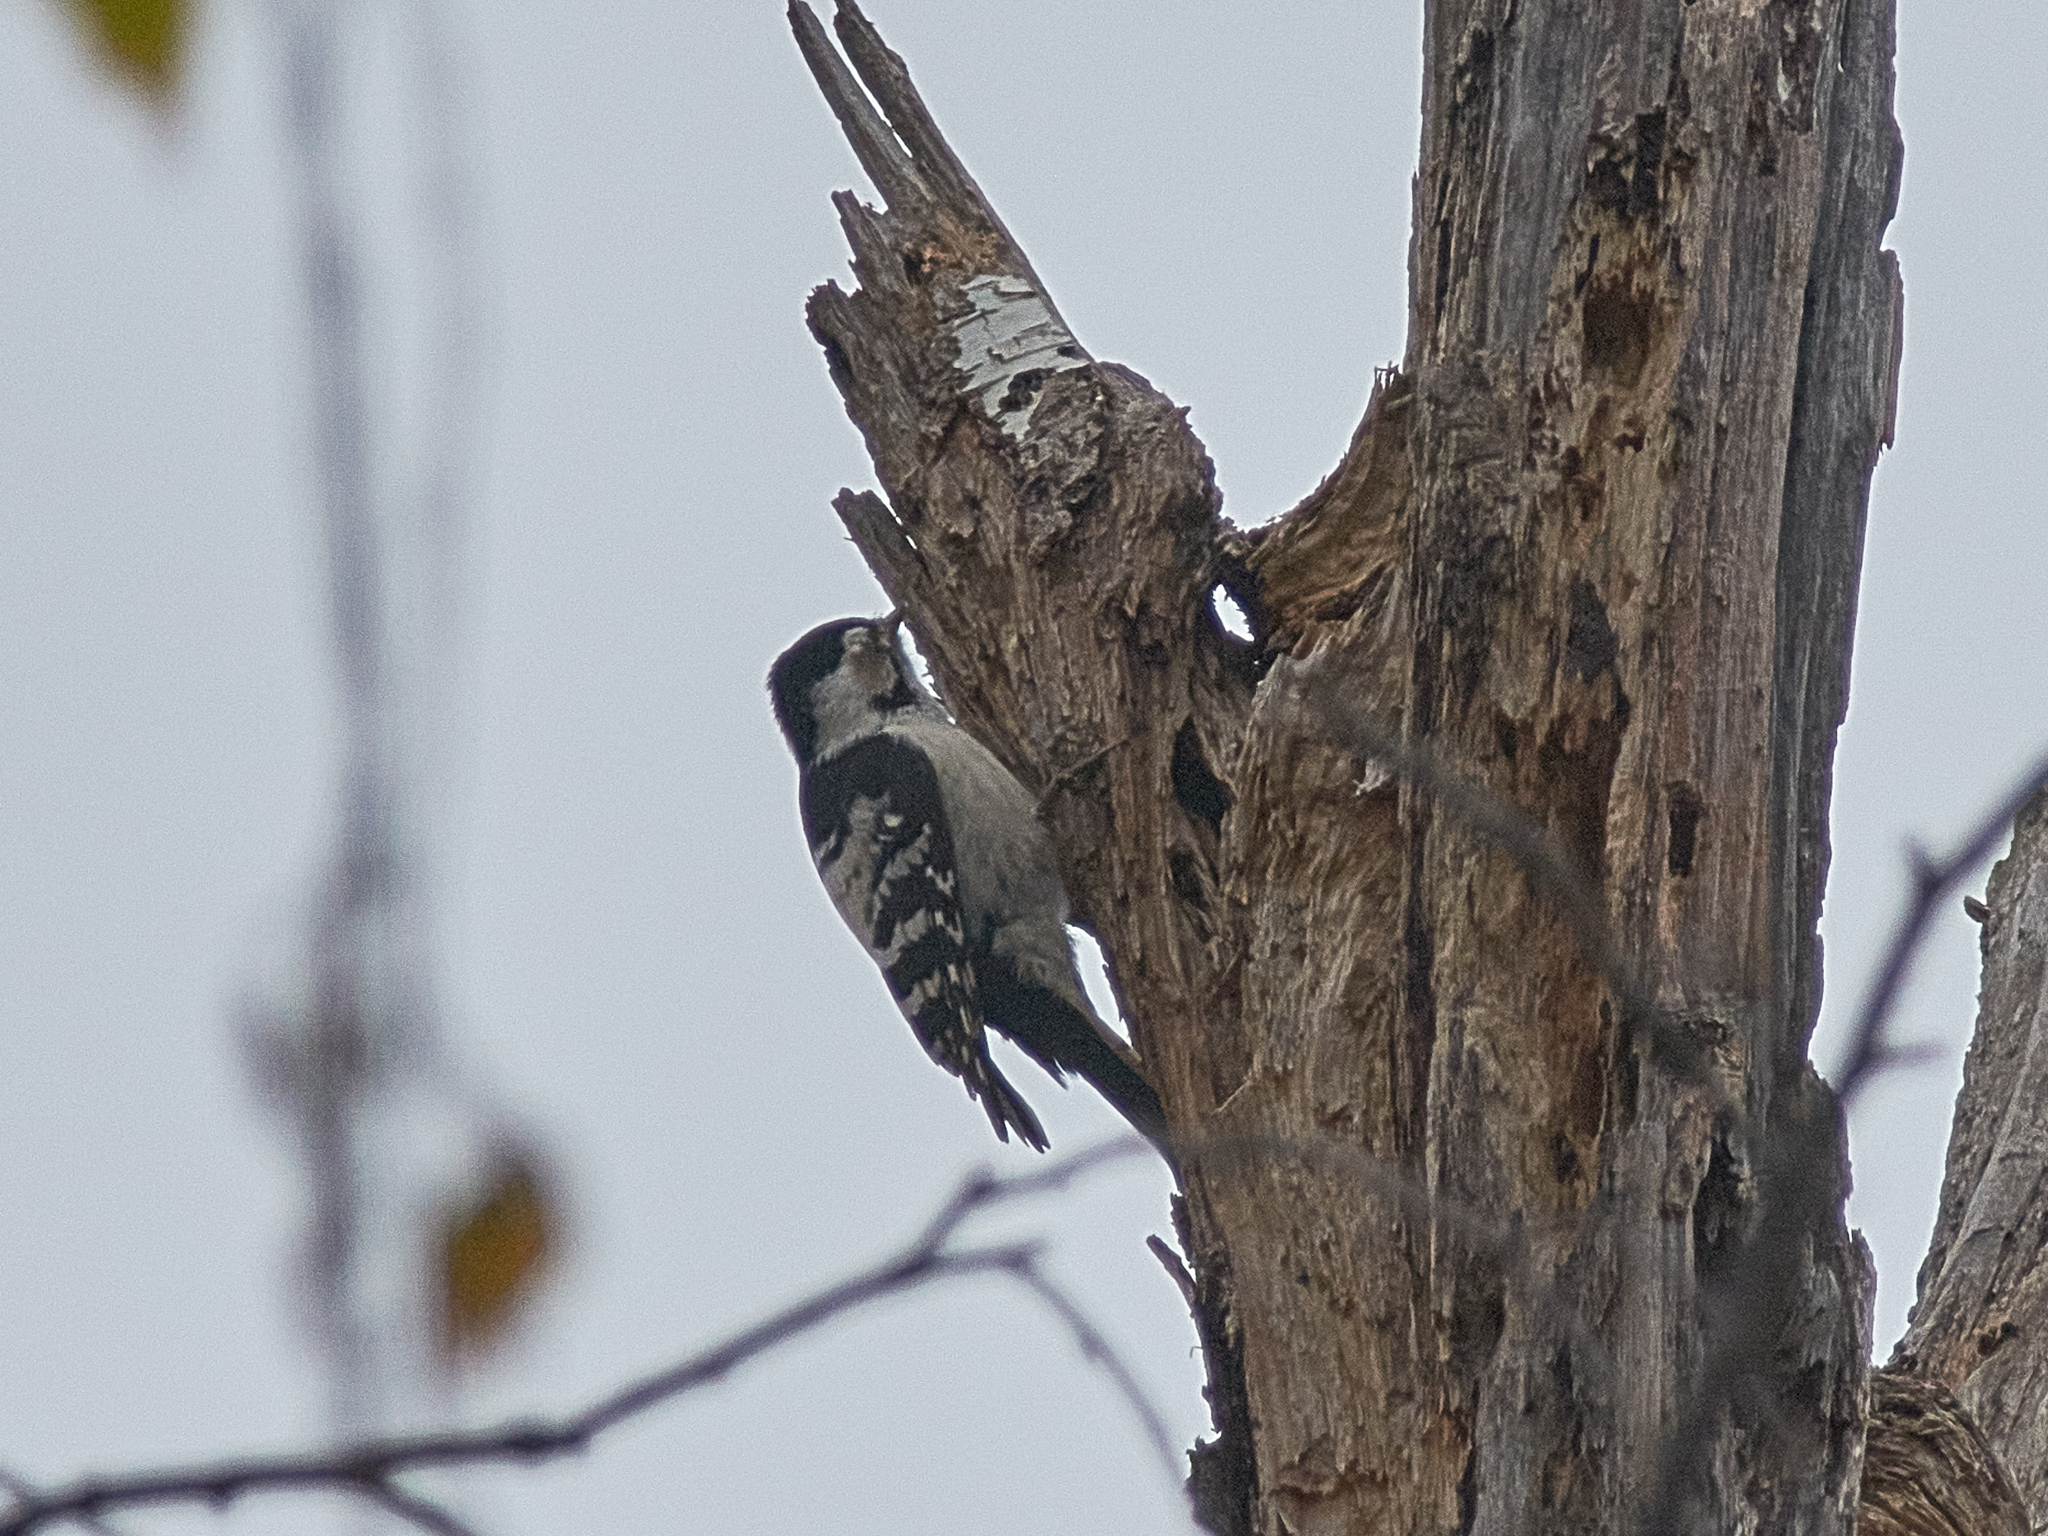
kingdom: Animalia
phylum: Chordata
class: Aves
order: Piciformes
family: Picidae
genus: Dryobates
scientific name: Dryobates minor
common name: Lesser spotted woodpecker
